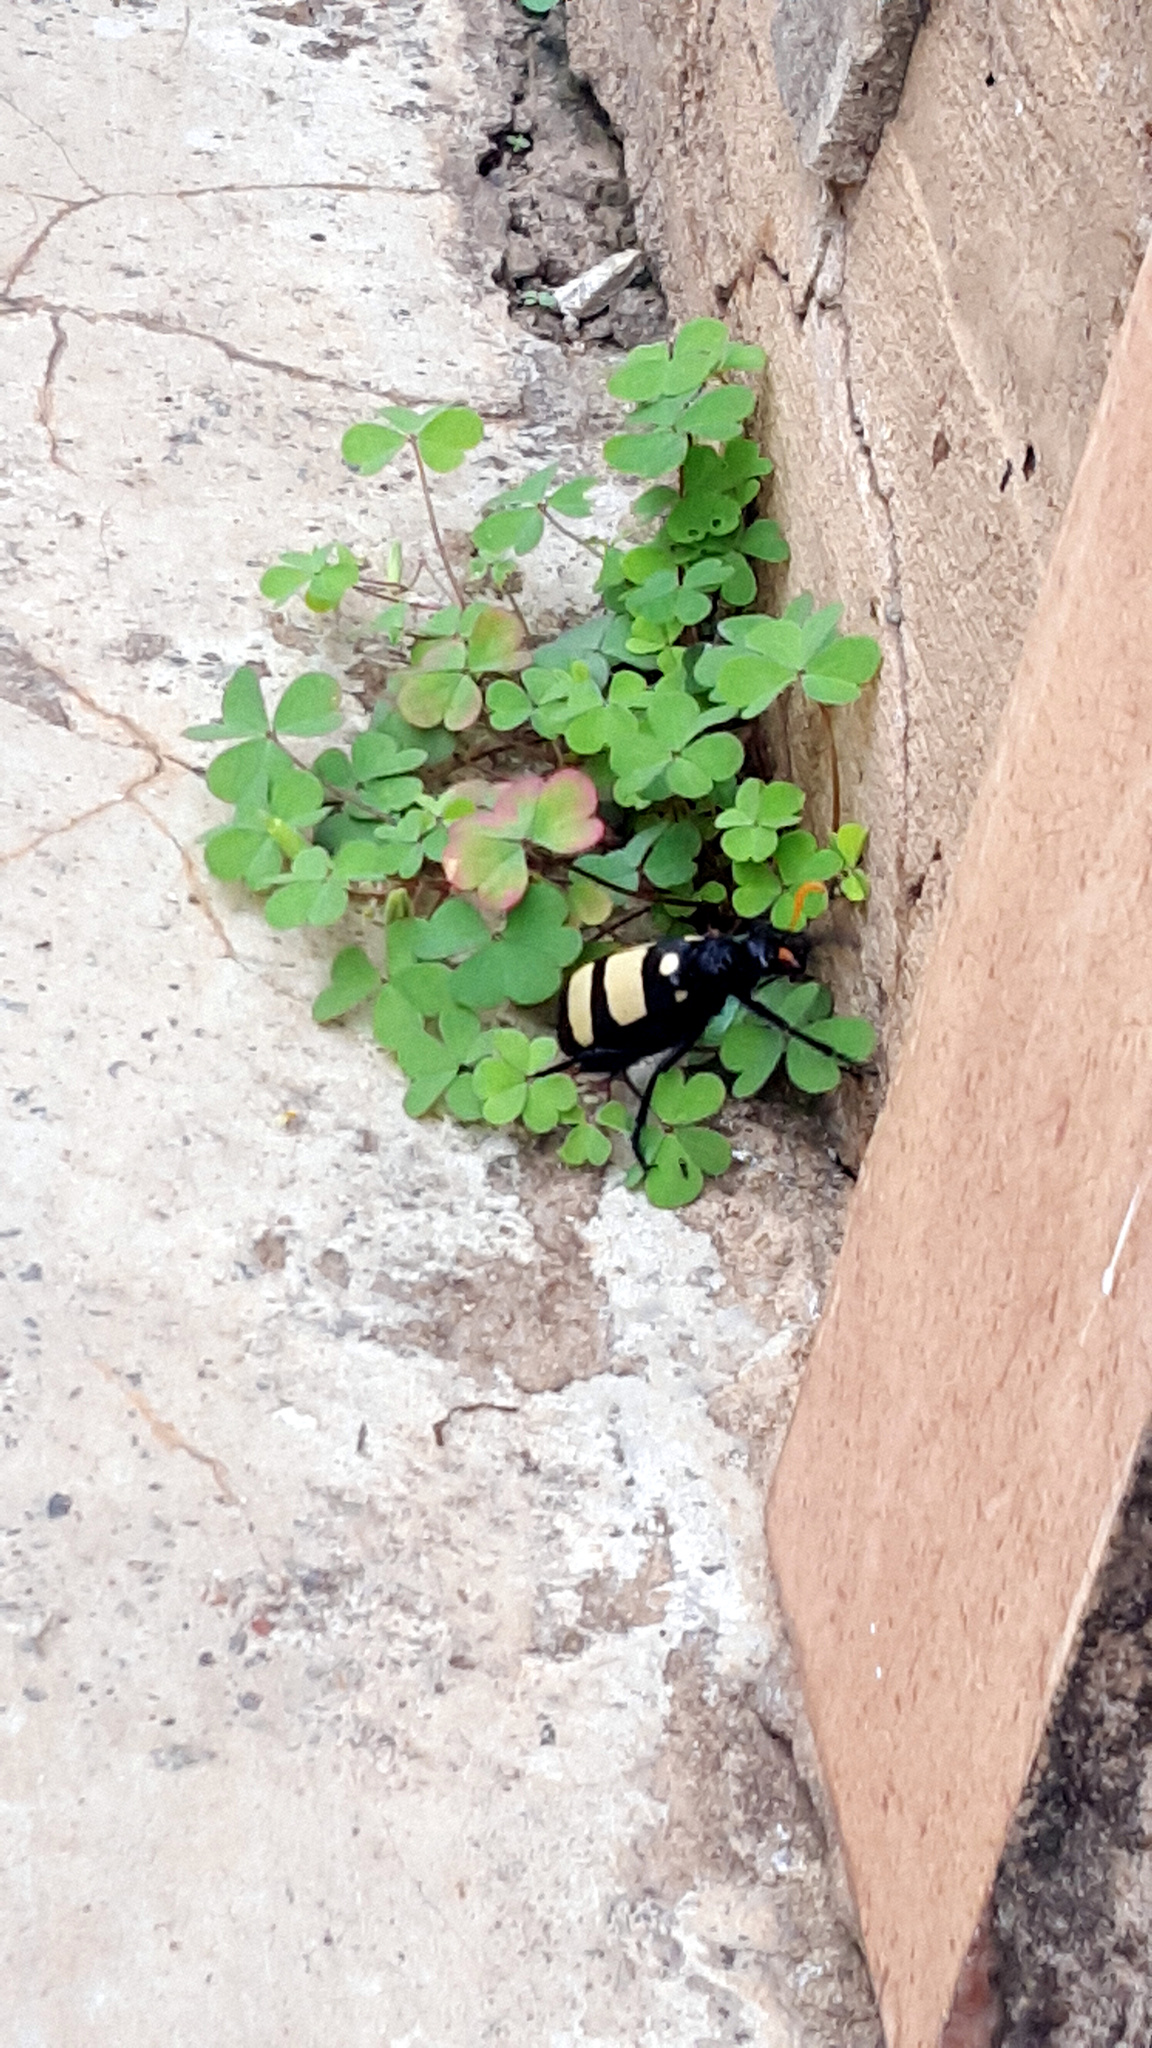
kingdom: Animalia
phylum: Arthropoda
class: Insecta
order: Coleoptera
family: Meloidae
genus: Hycleus
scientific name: Hycleus
